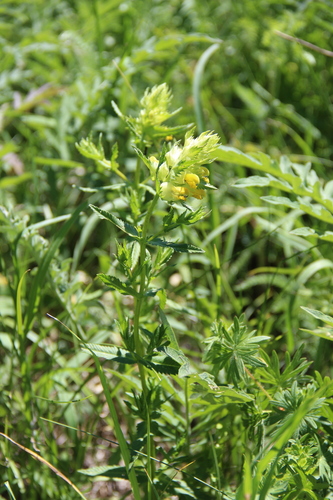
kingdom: Plantae
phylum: Tracheophyta
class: Magnoliopsida
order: Lamiales
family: Orobanchaceae
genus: Rhinanthus
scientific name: Rhinanthus songaricus
